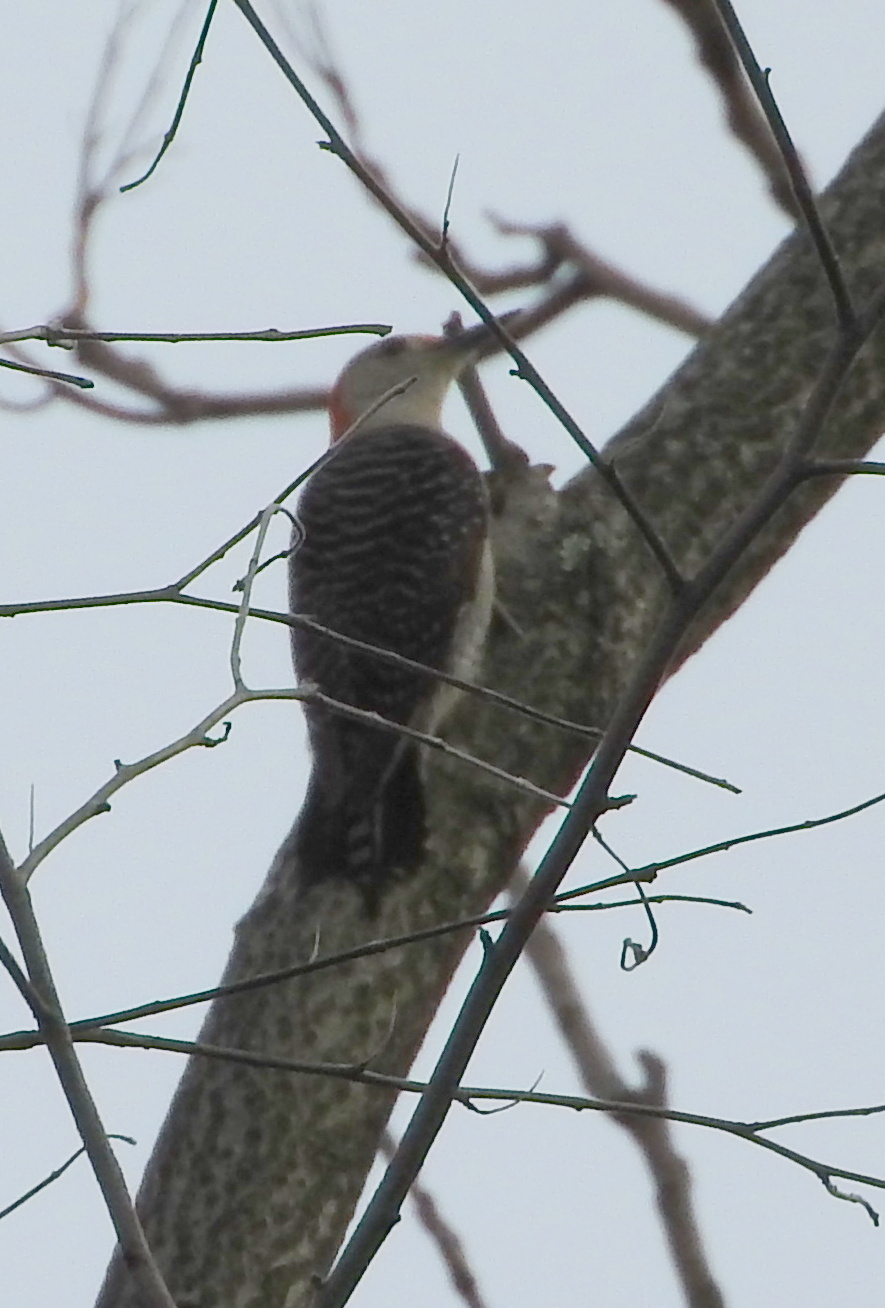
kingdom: Animalia
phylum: Chordata
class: Aves
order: Piciformes
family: Picidae
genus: Melanerpes
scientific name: Melanerpes carolinus
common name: Red-bellied woodpecker
